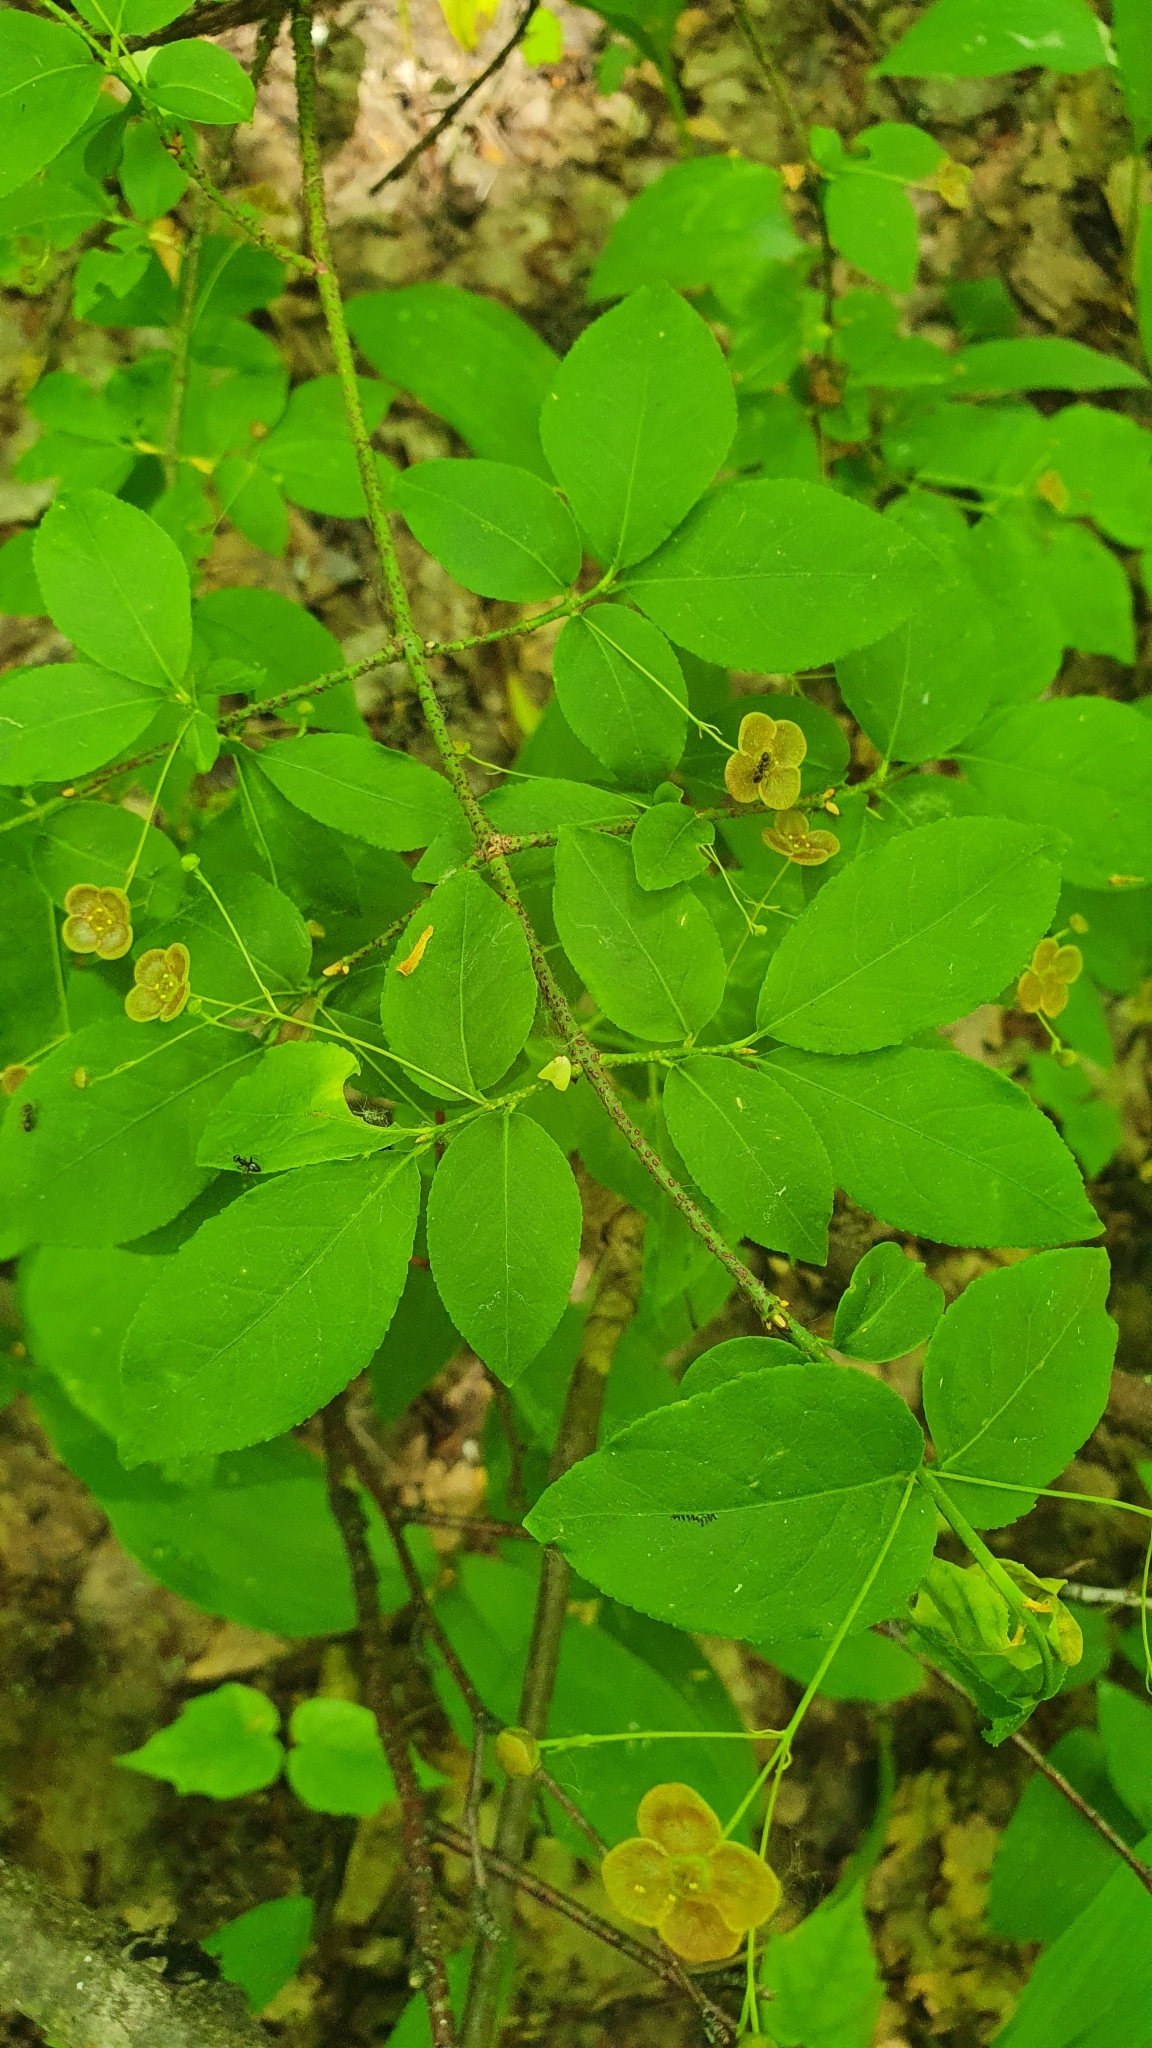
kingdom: Plantae
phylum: Tracheophyta
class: Magnoliopsida
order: Celastrales
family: Celastraceae
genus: Euonymus
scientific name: Euonymus verrucosus
